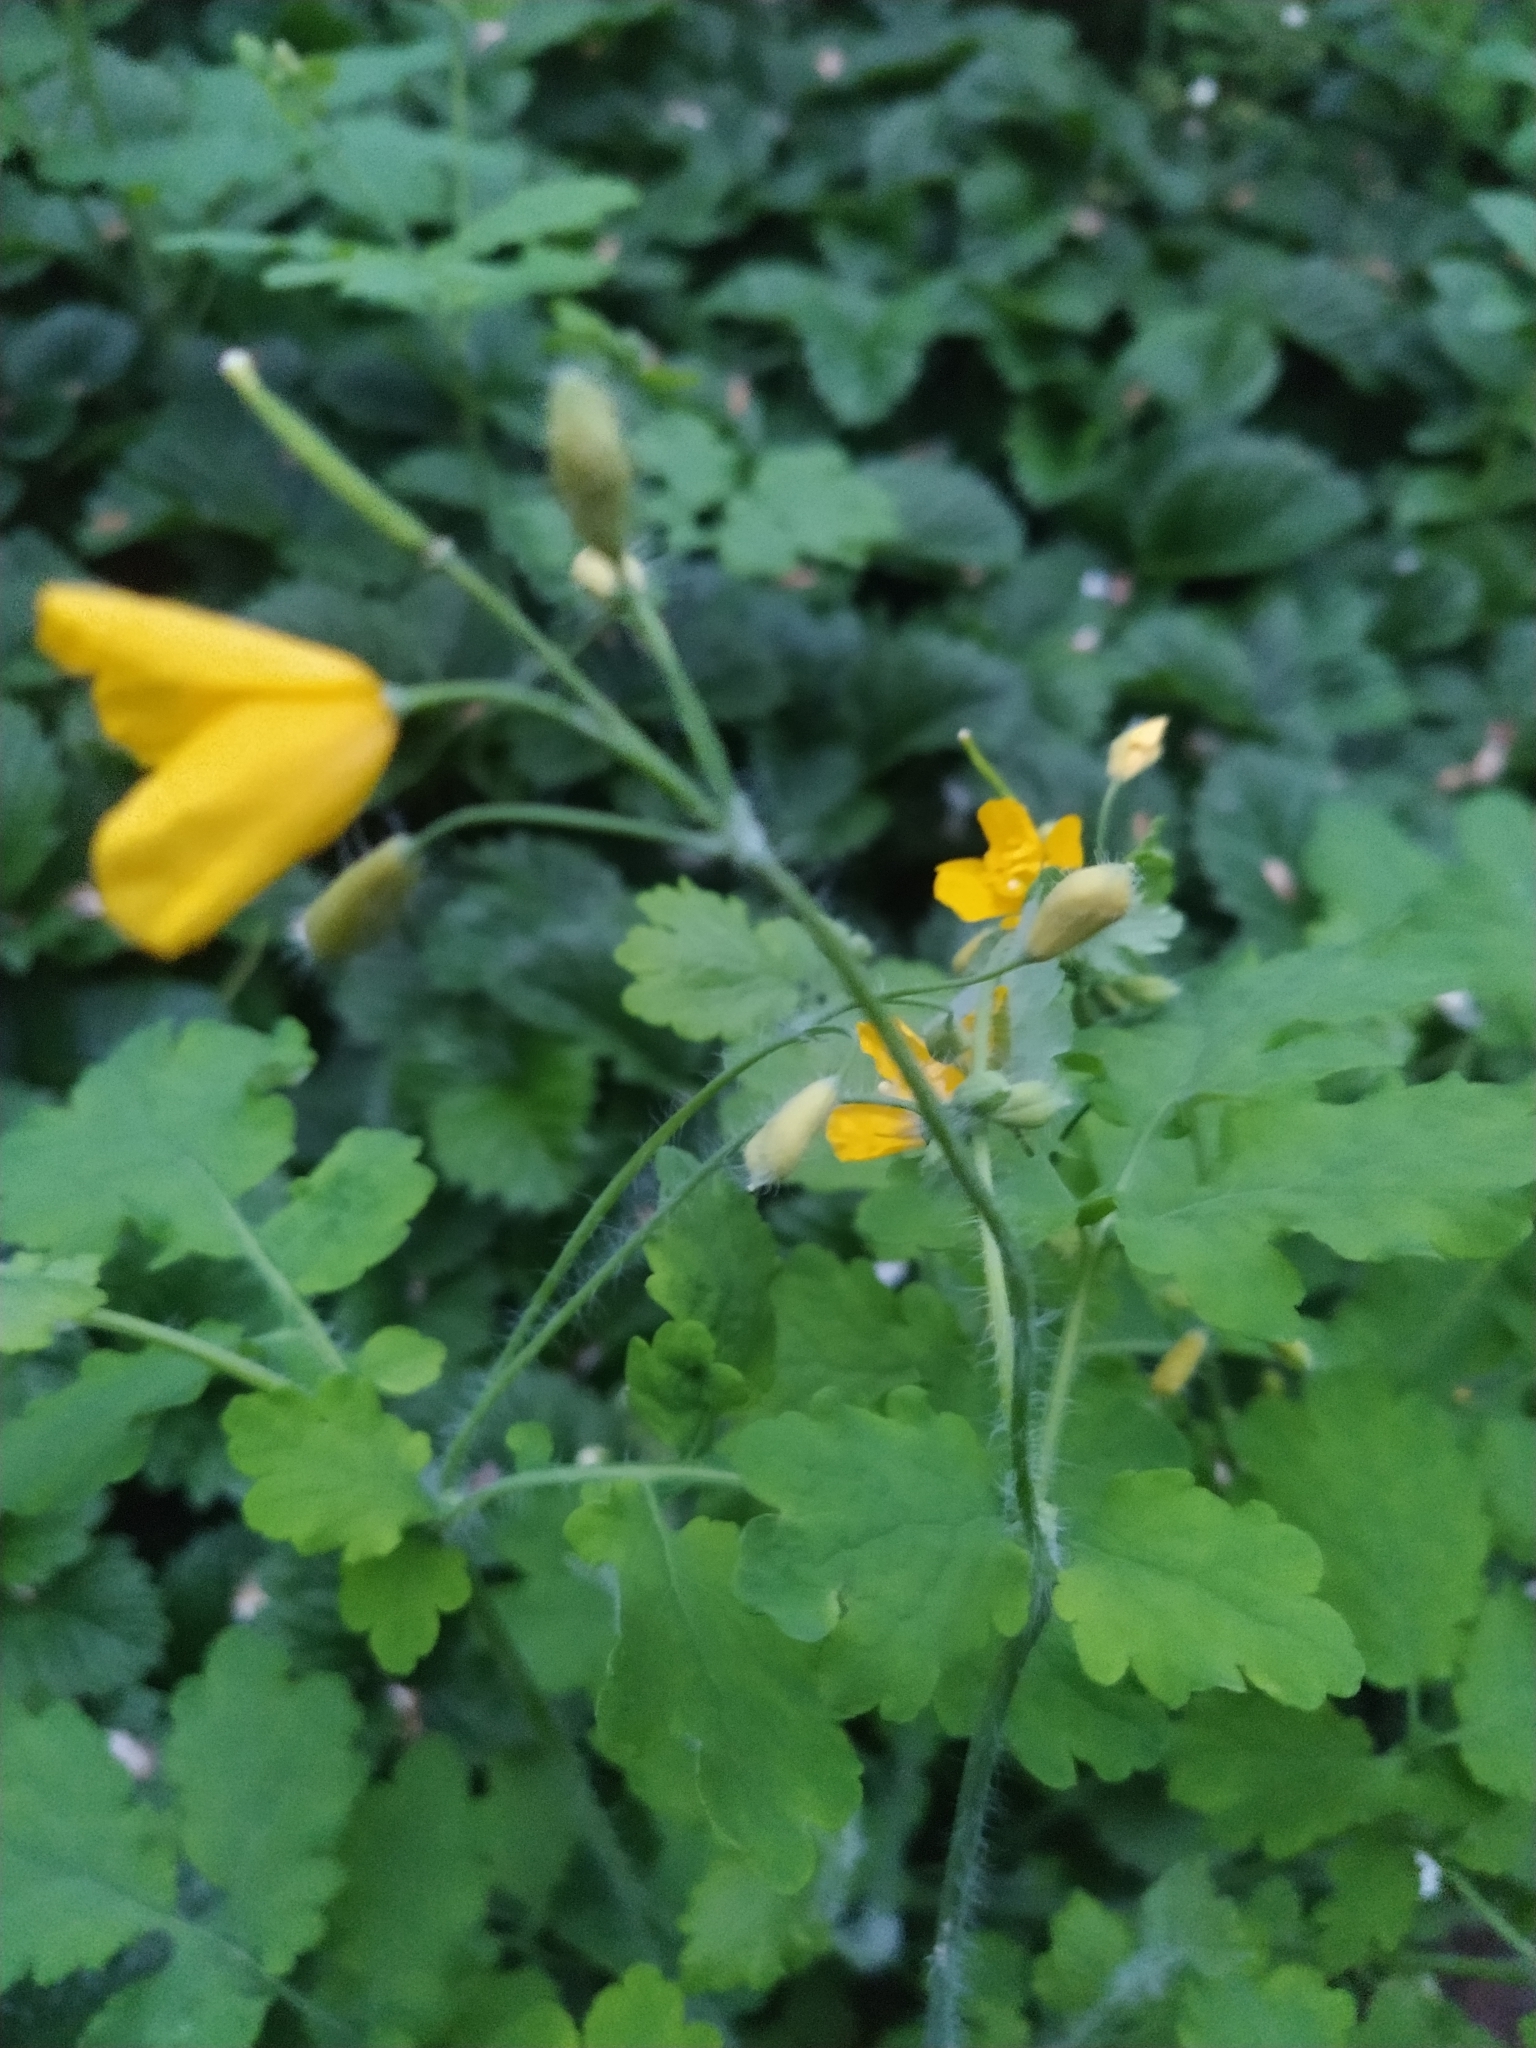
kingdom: Plantae
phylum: Tracheophyta
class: Magnoliopsida
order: Ranunculales
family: Papaveraceae
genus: Chelidonium
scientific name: Chelidonium majus
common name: Greater celandine
